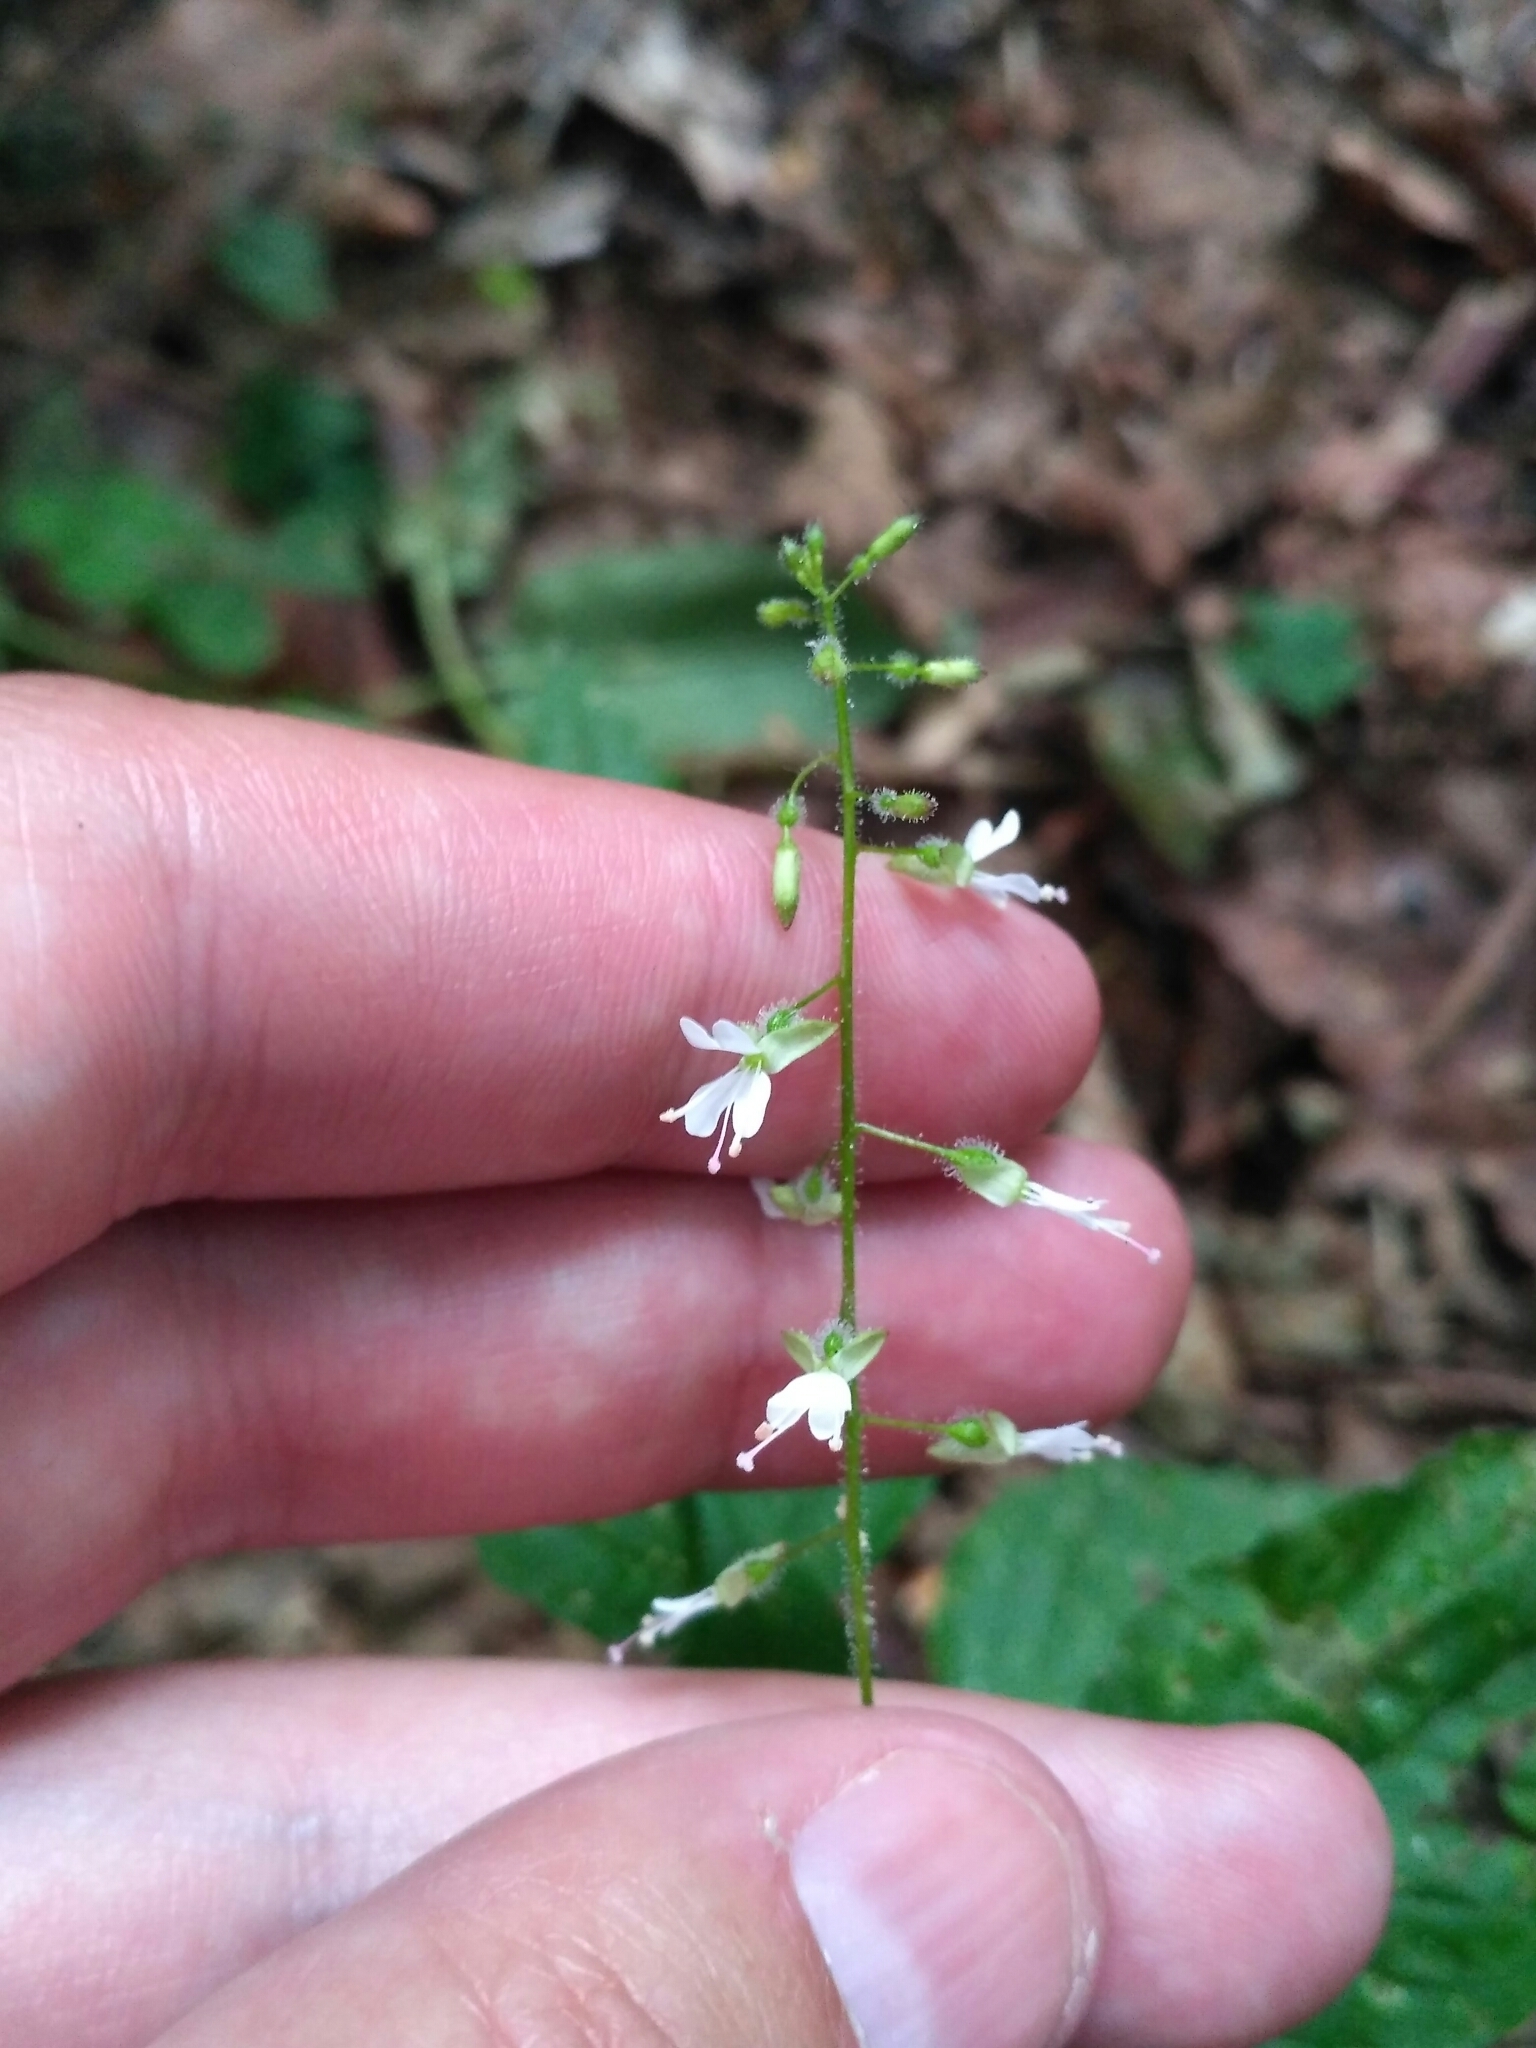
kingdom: Plantae
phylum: Tracheophyta
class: Magnoliopsida
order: Myrtales
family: Onagraceae
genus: Circaea
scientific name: Circaea lutetiana
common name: Enchanter's-nightshade
